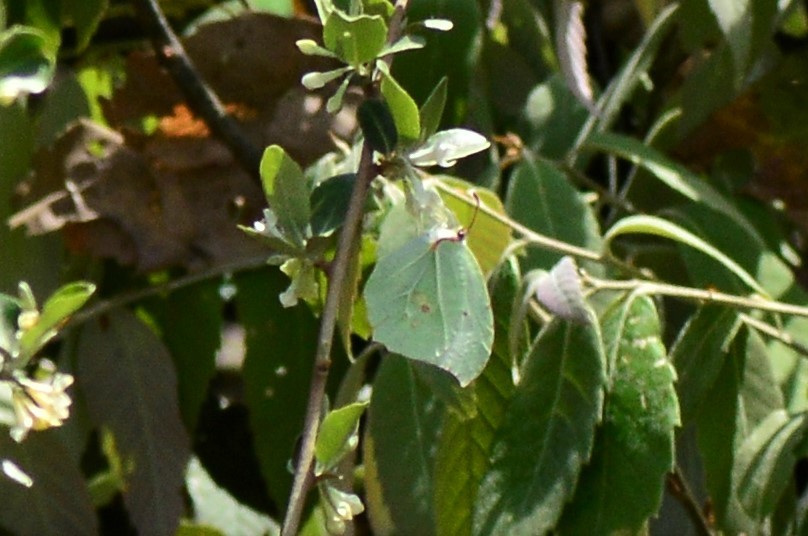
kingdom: Animalia
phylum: Arthropoda
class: Insecta
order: Lepidoptera
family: Pieridae
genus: Gonepteryx
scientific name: Gonepteryx
